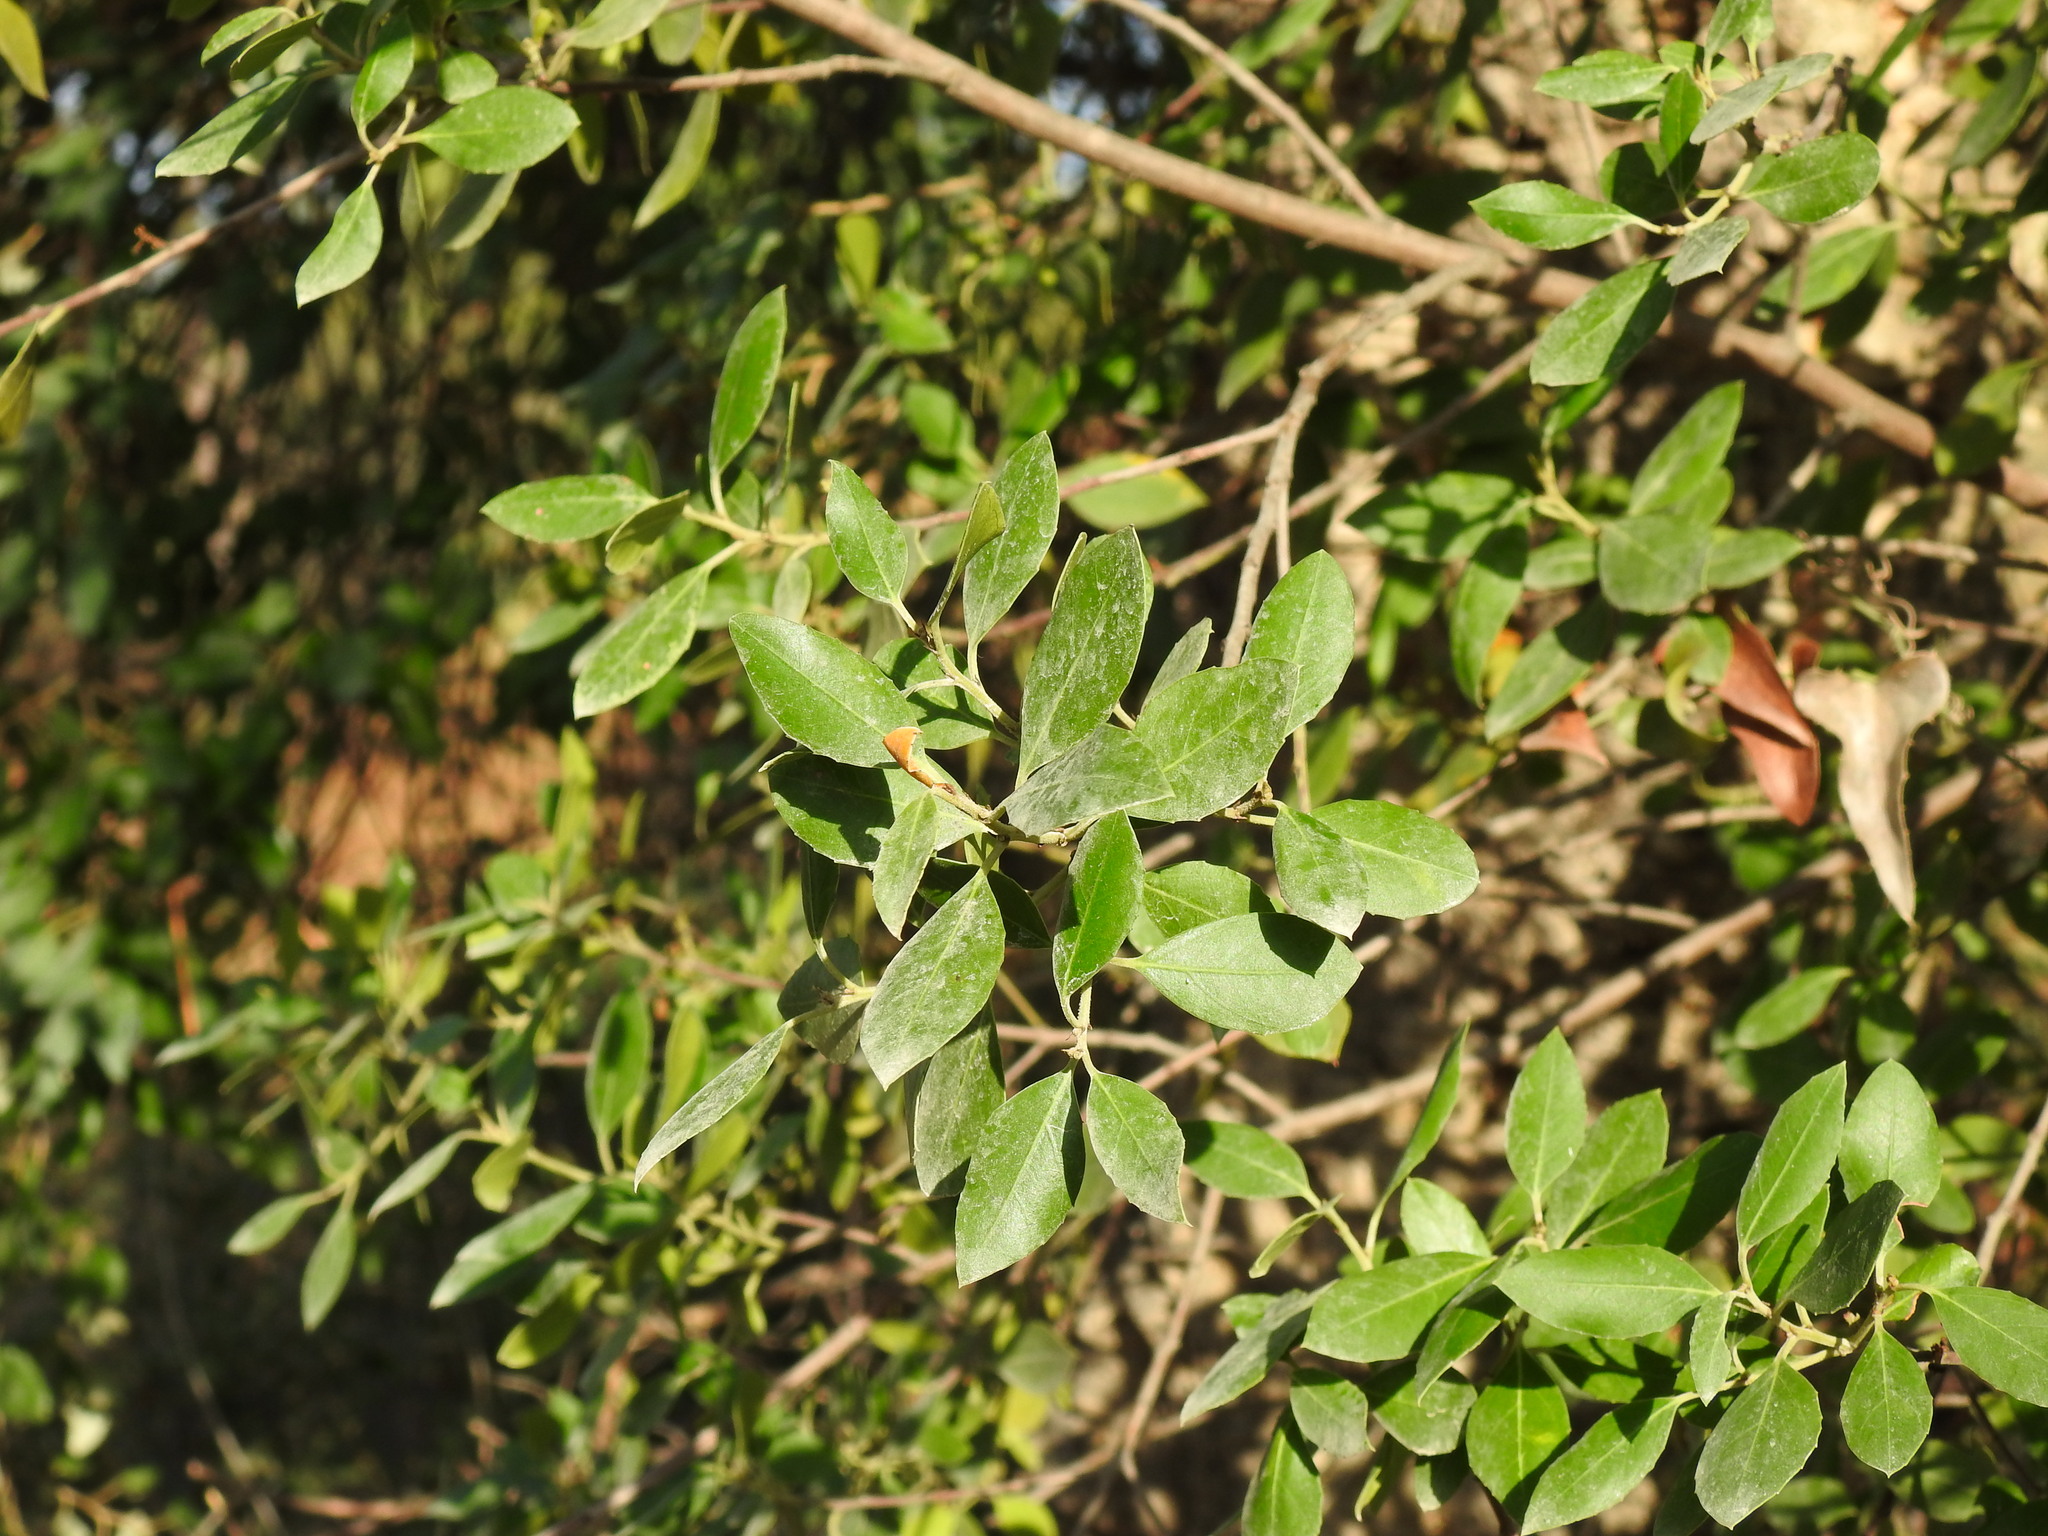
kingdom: Plantae
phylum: Tracheophyta
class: Magnoliopsida
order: Rosales
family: Rhamnaceae
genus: Rhamnus
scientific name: Rhamnus alaternus
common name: Mediterranean buckthorn
